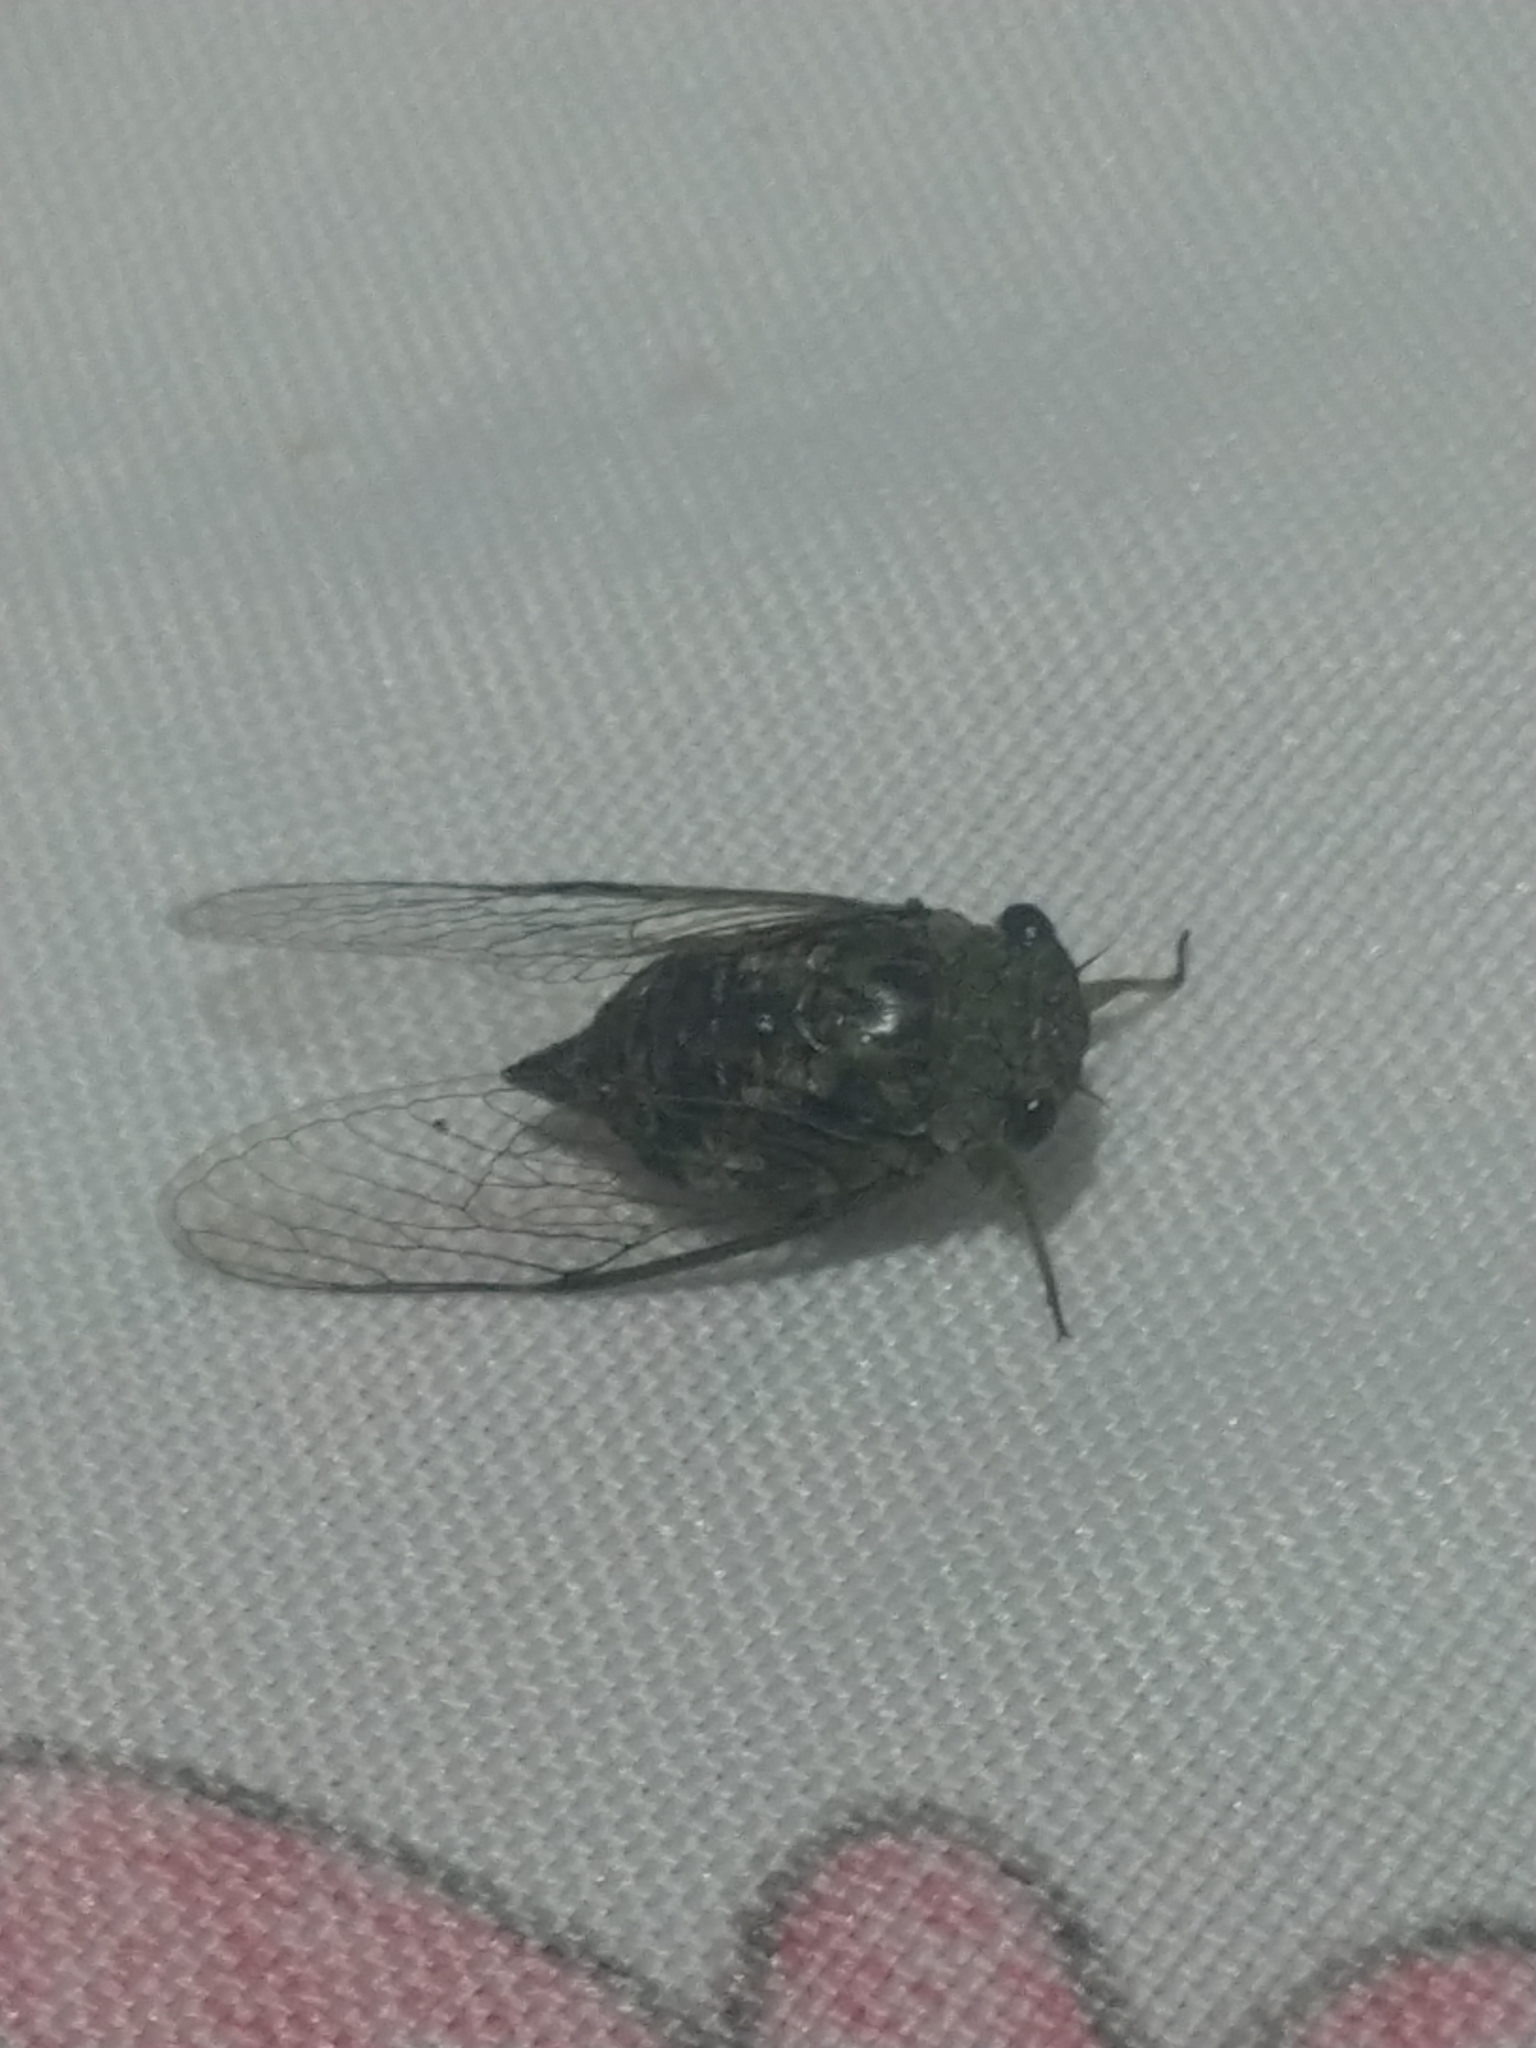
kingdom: Animalia
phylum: Arthropoda
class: Insecta
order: Hemiptera
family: Cicadidae
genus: Quesada
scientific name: Quesada gigas
